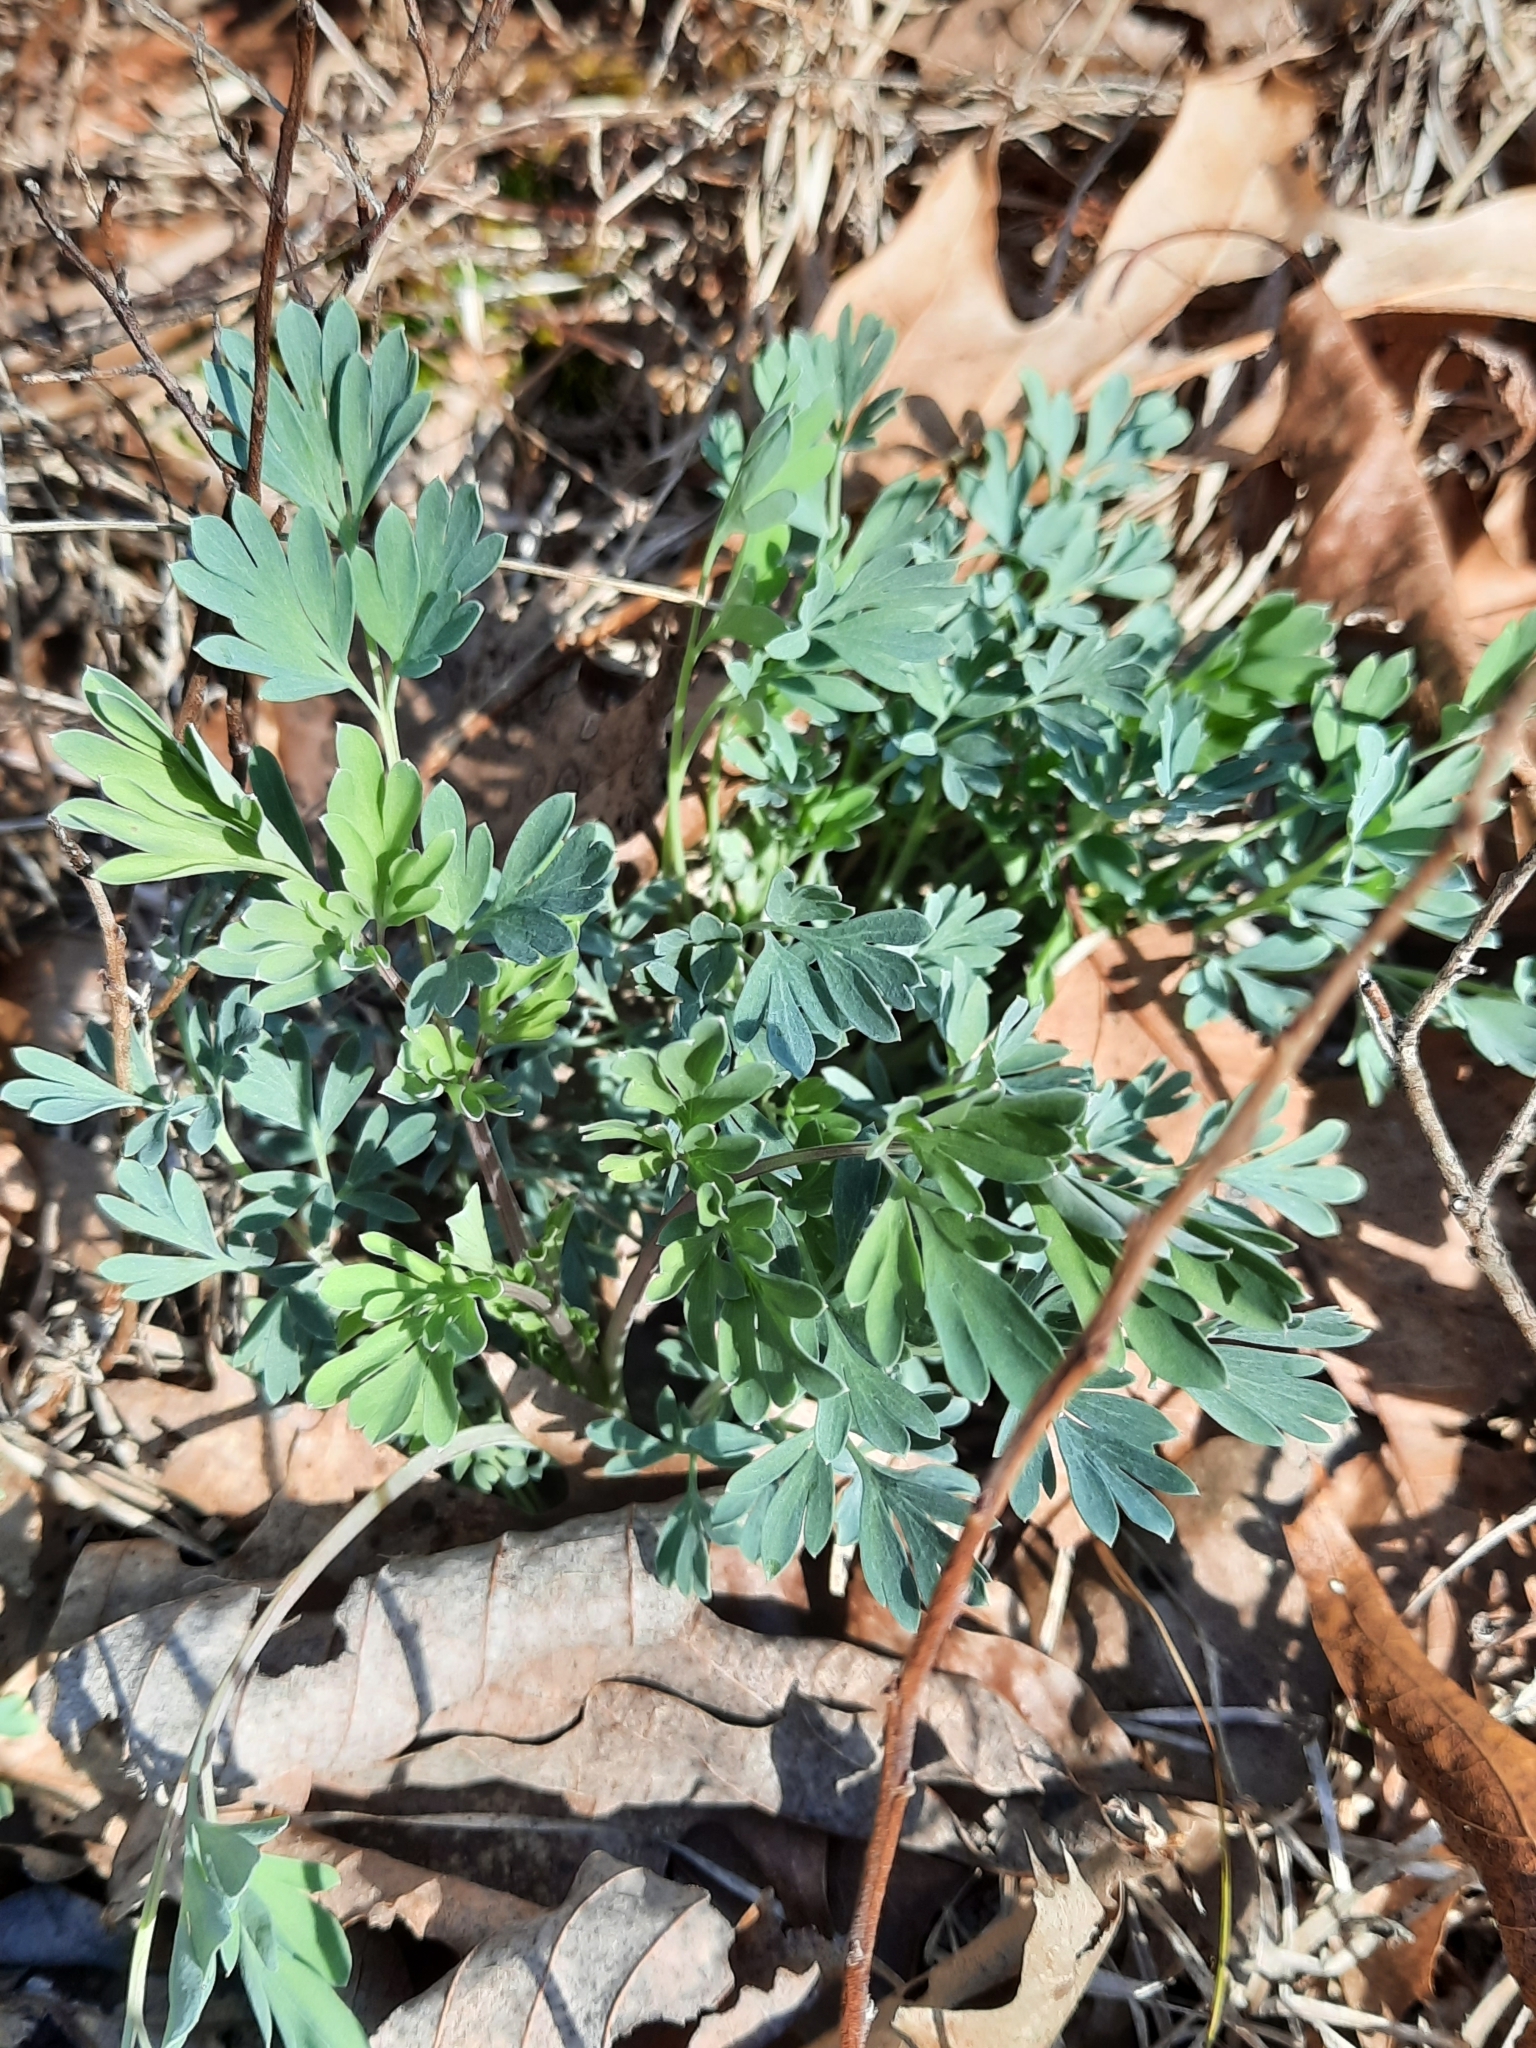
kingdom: Plantae
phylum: Tracheophyta
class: Magnoliopsida
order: Ranunculales
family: Papaveraceae
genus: Capnoides
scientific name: Capnoides sempervirens
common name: Rock harlequin
